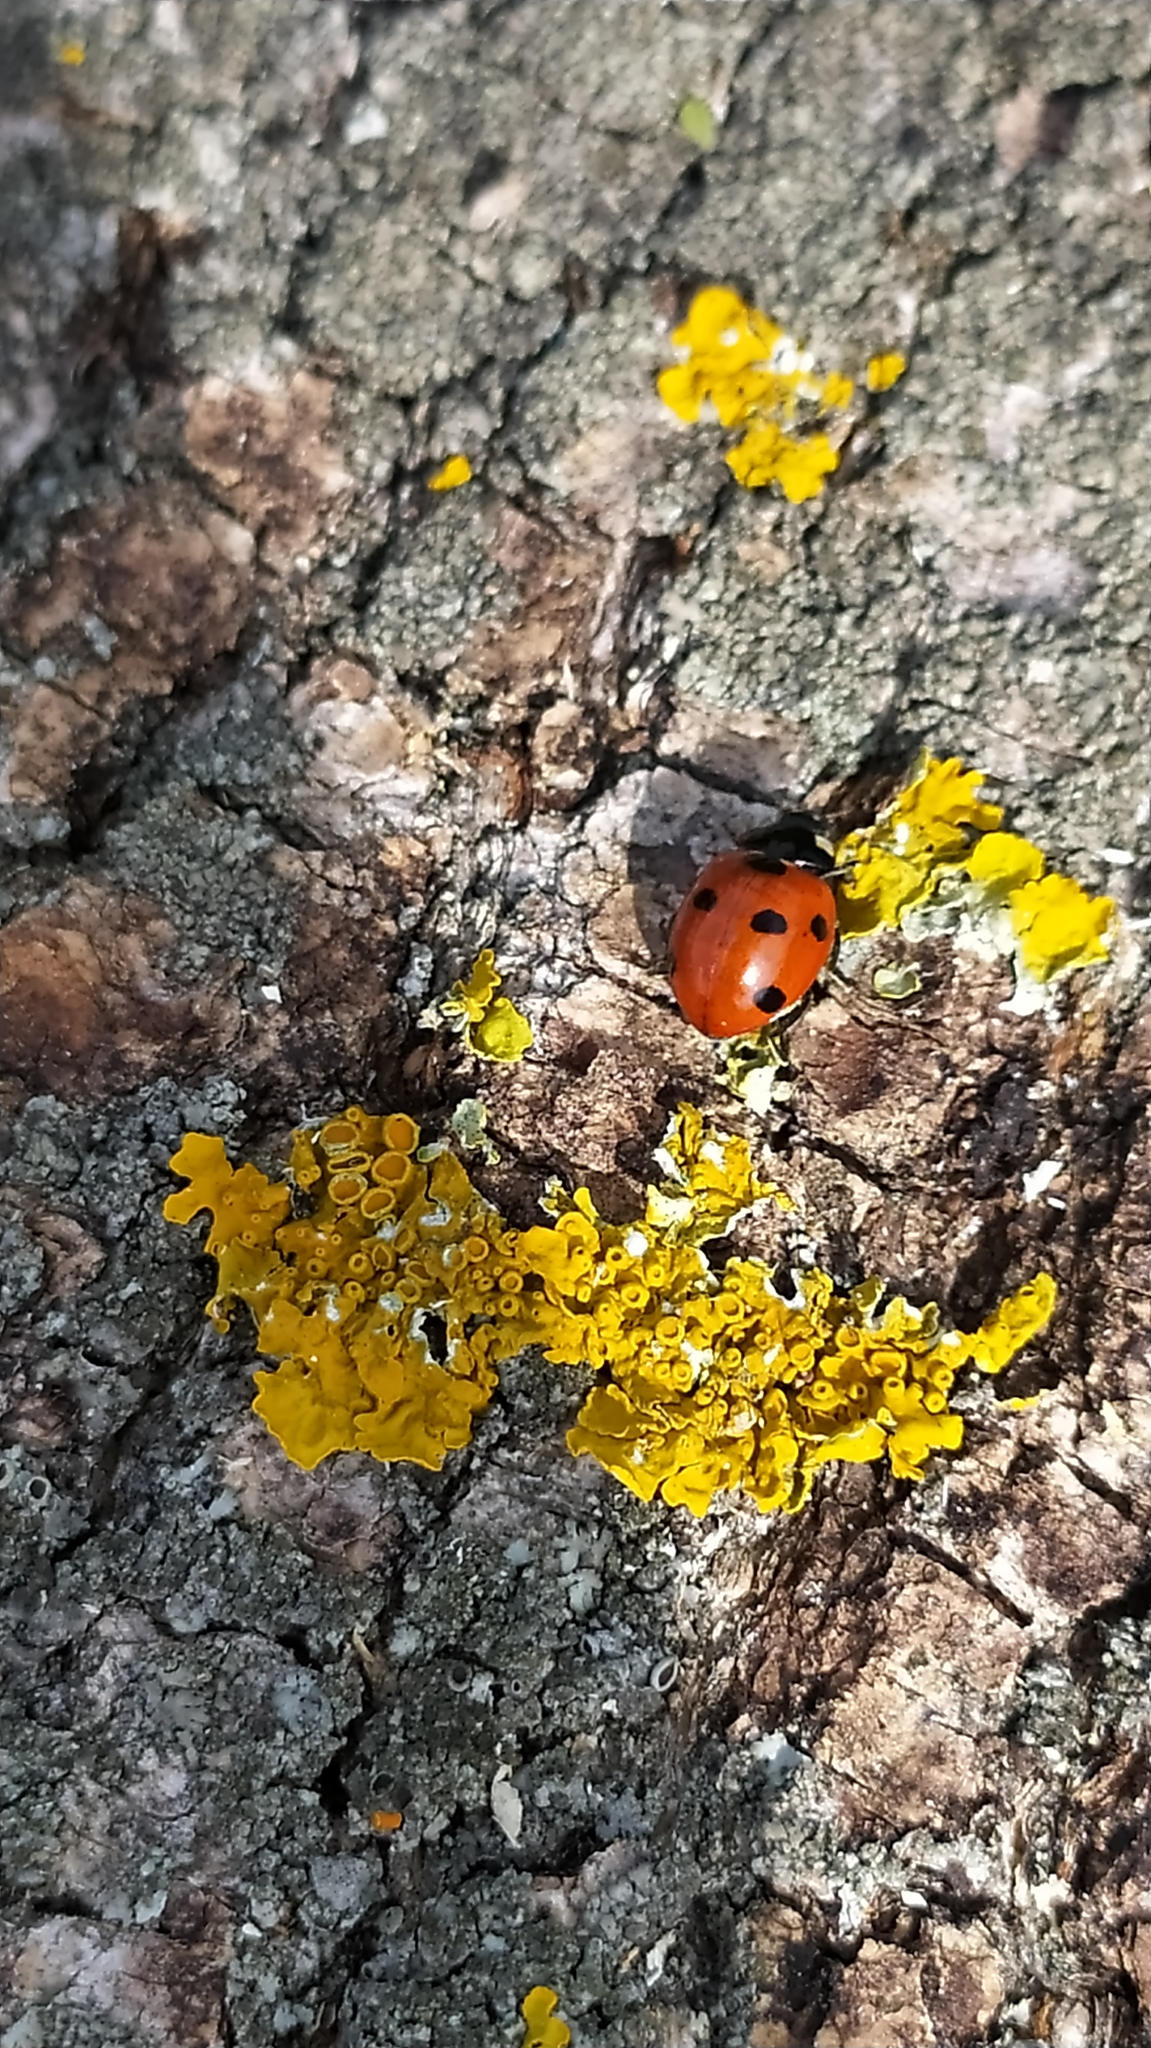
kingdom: Animalia
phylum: Arthropoda
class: Insecta
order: Coleoptera
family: Coccinellidae
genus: Coccinella
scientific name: Coccinella septempunctata
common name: Sevenspotted lady beetle
